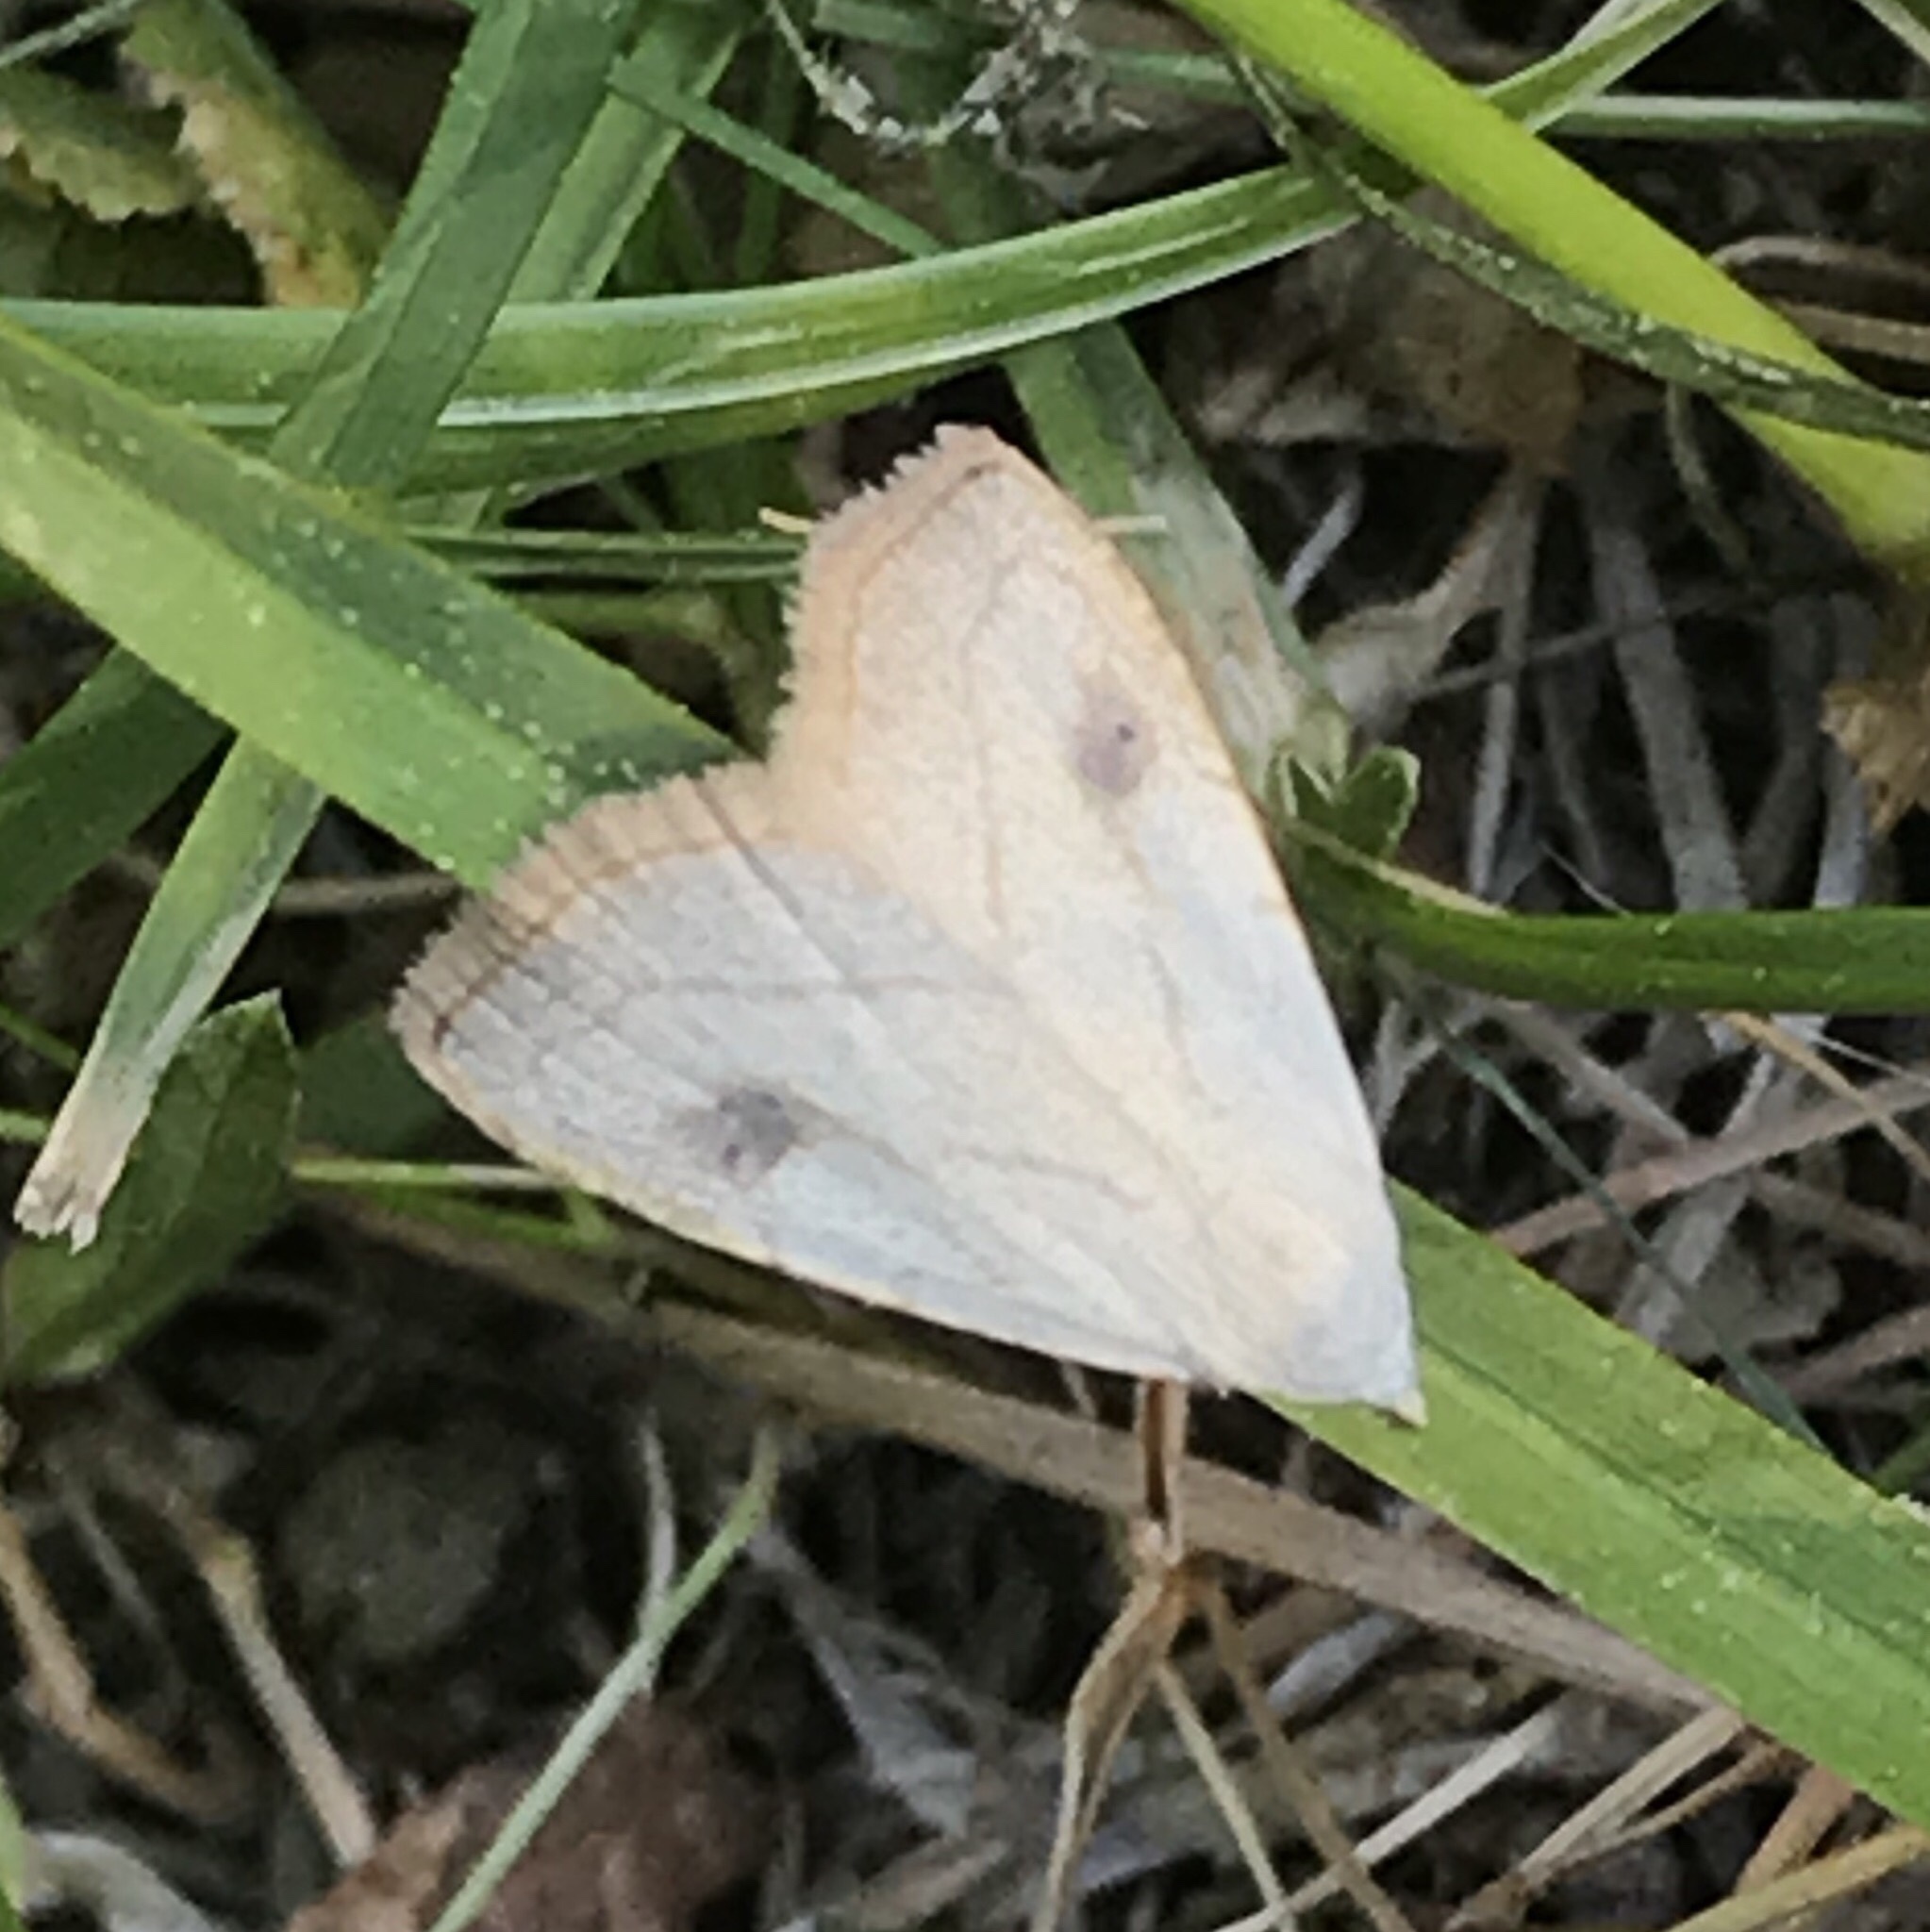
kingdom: Animalia
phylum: Arthropoda
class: Insecta
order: Lepidoptera
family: Erebidae
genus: Rivula
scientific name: Rivula propinqualis
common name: Spotted grass moth
